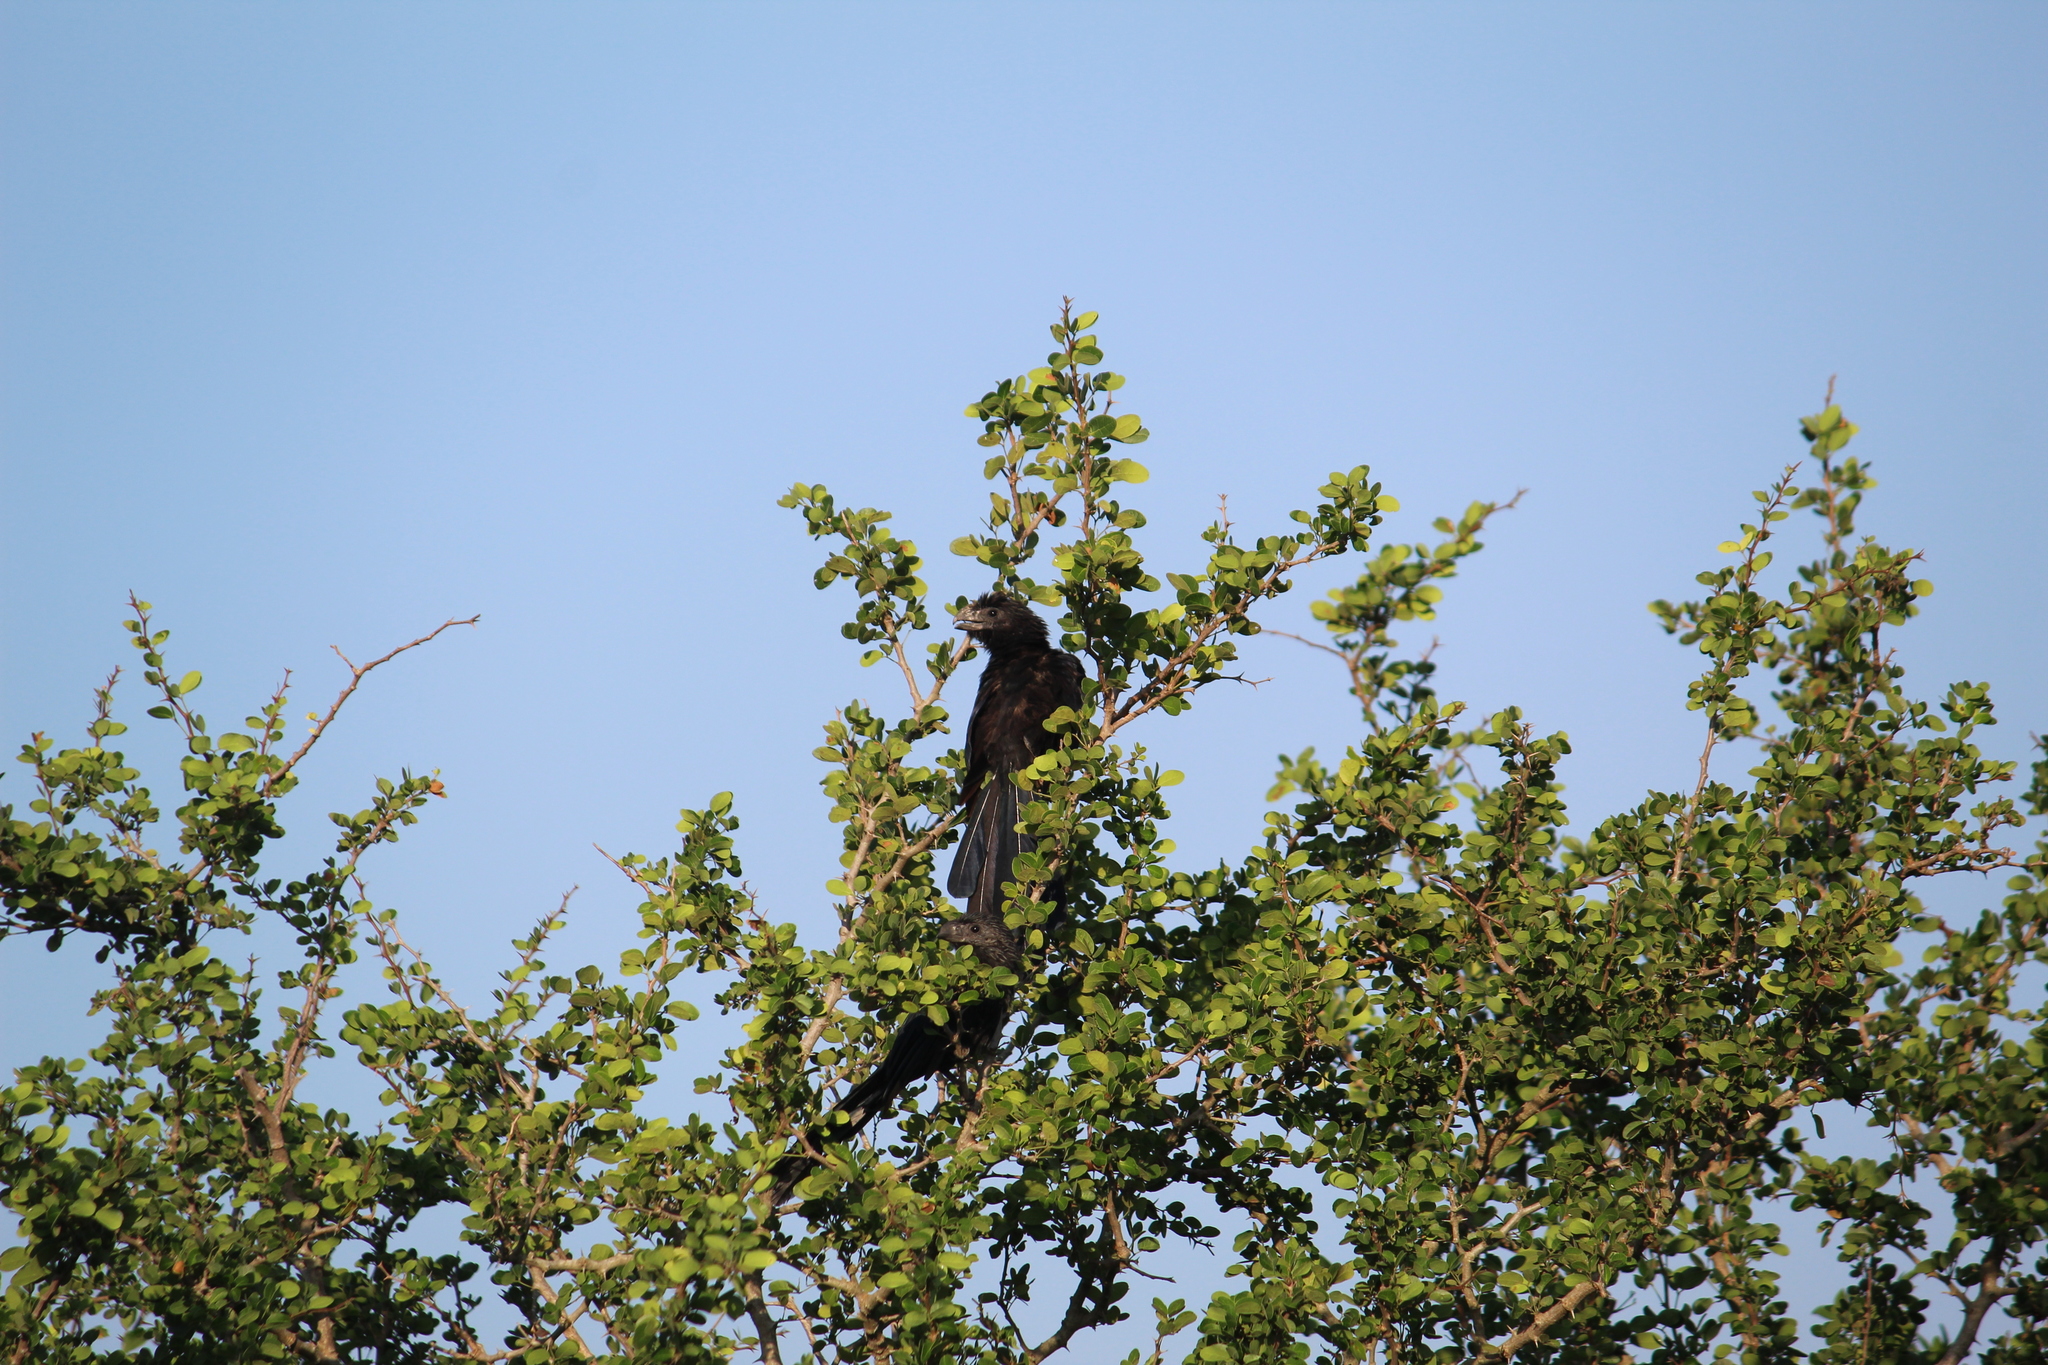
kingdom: Animalia
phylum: Chordata
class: Aves
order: Cuculiformes
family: Cuculidae
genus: Crotophaga
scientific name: Crotophaga sulcirostris
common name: Groove-billed ani
